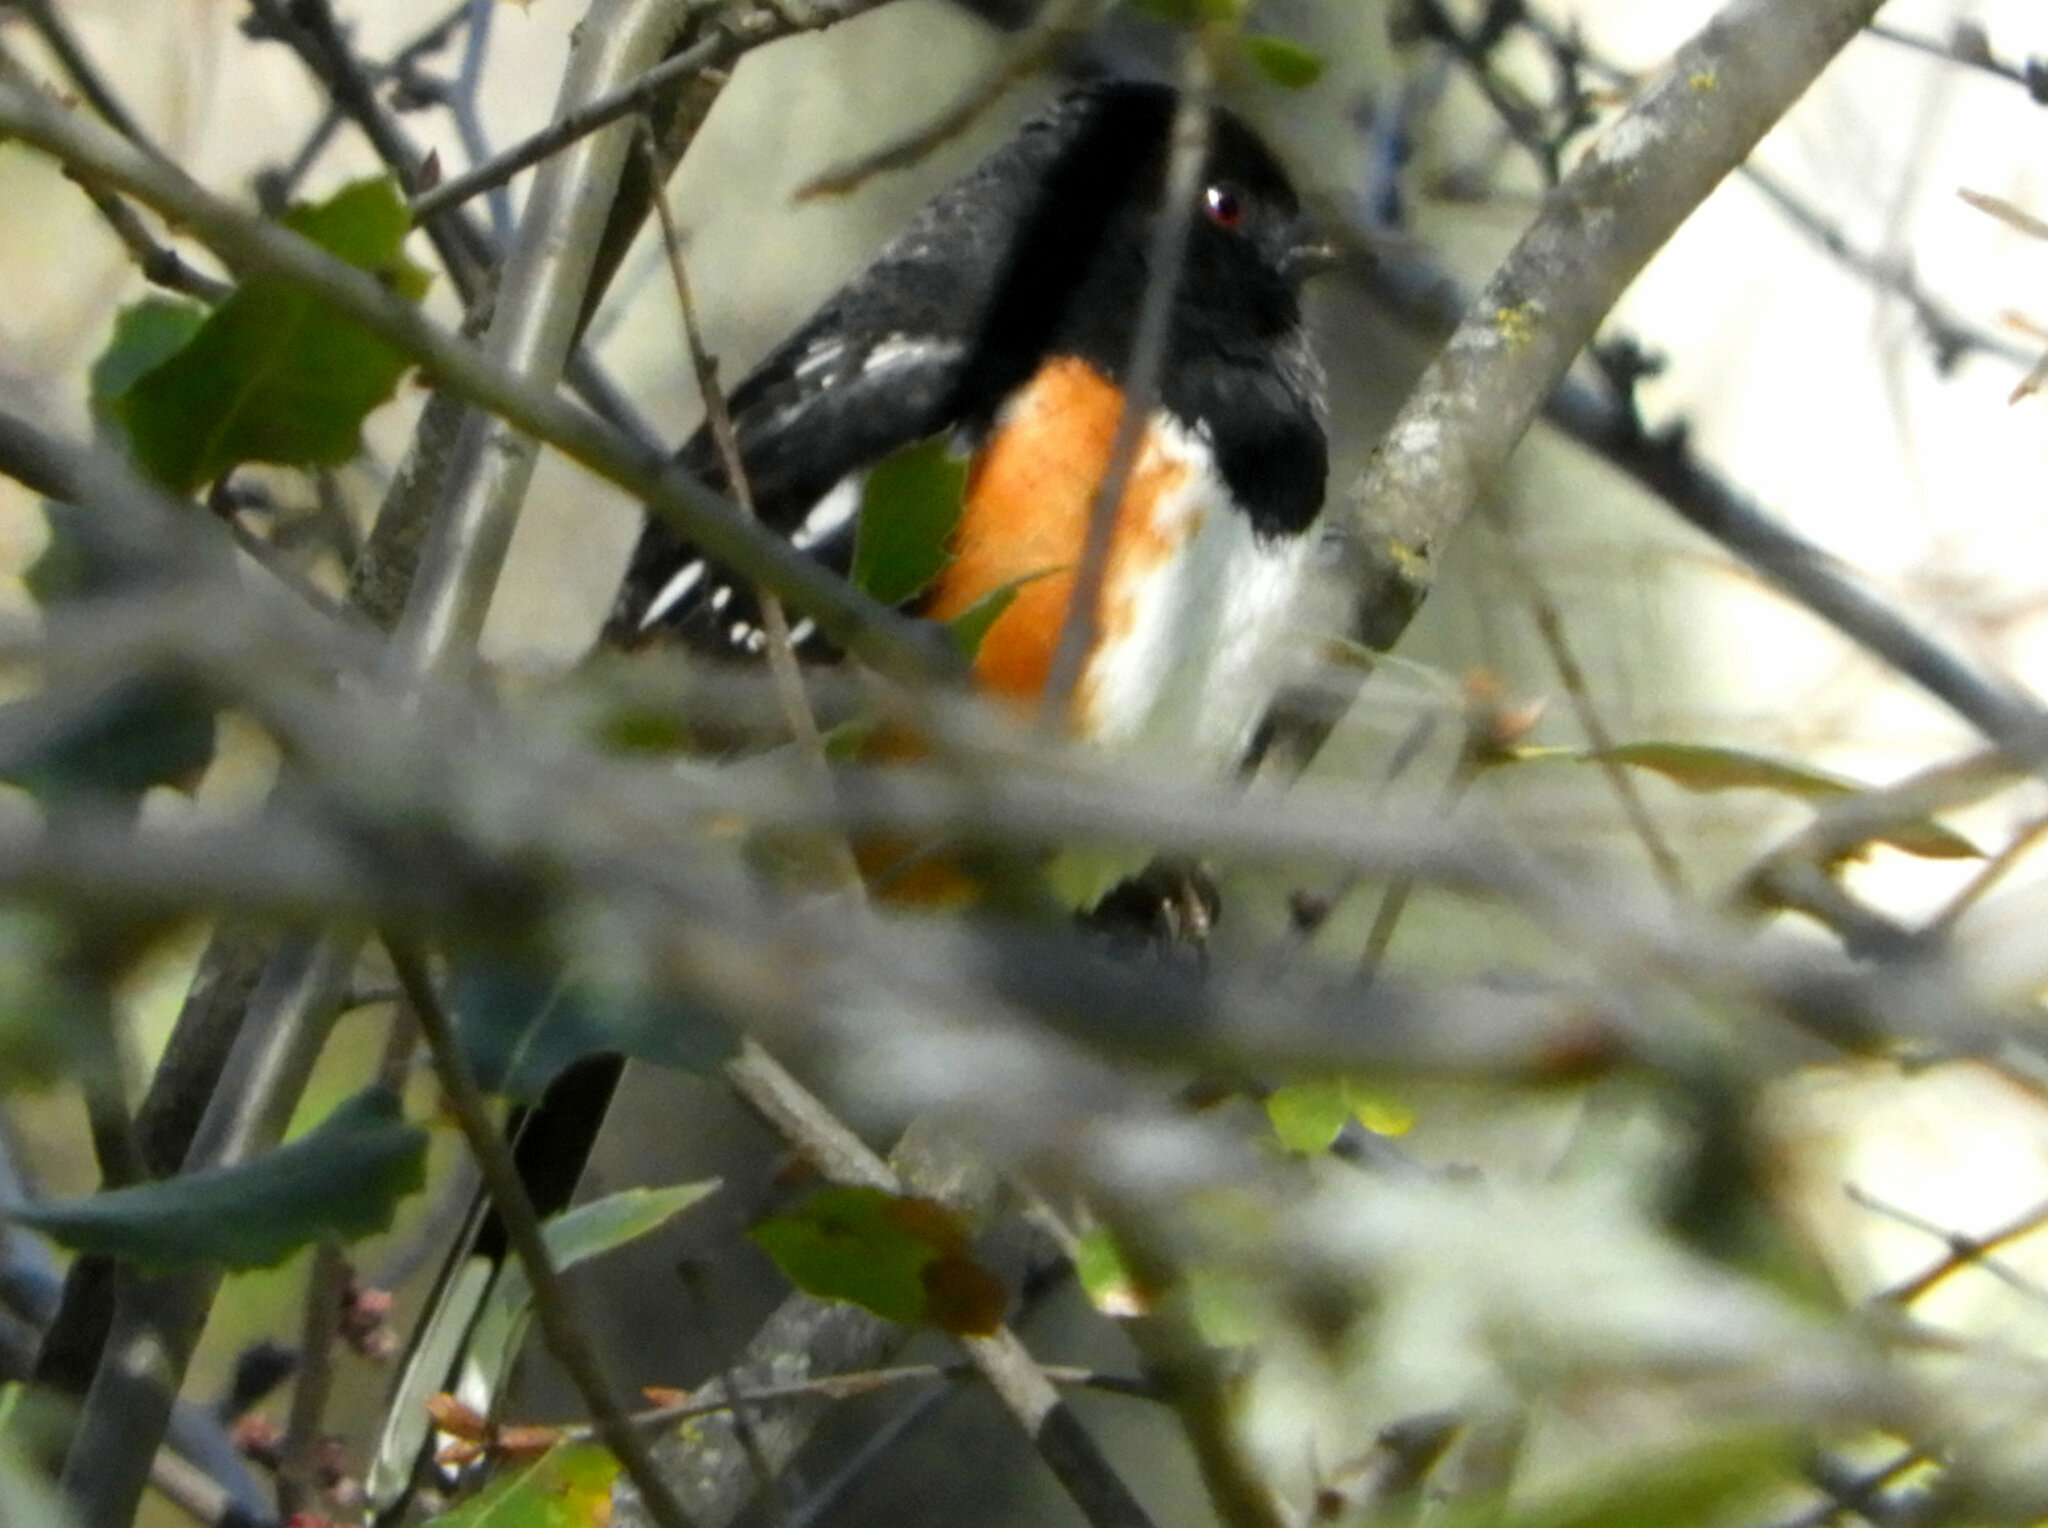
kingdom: Animalia
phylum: Chordata
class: Aves
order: Passeriformes
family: Passerellidae
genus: Pipilo
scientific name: Pipilo maculatus
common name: Spotted towhee
